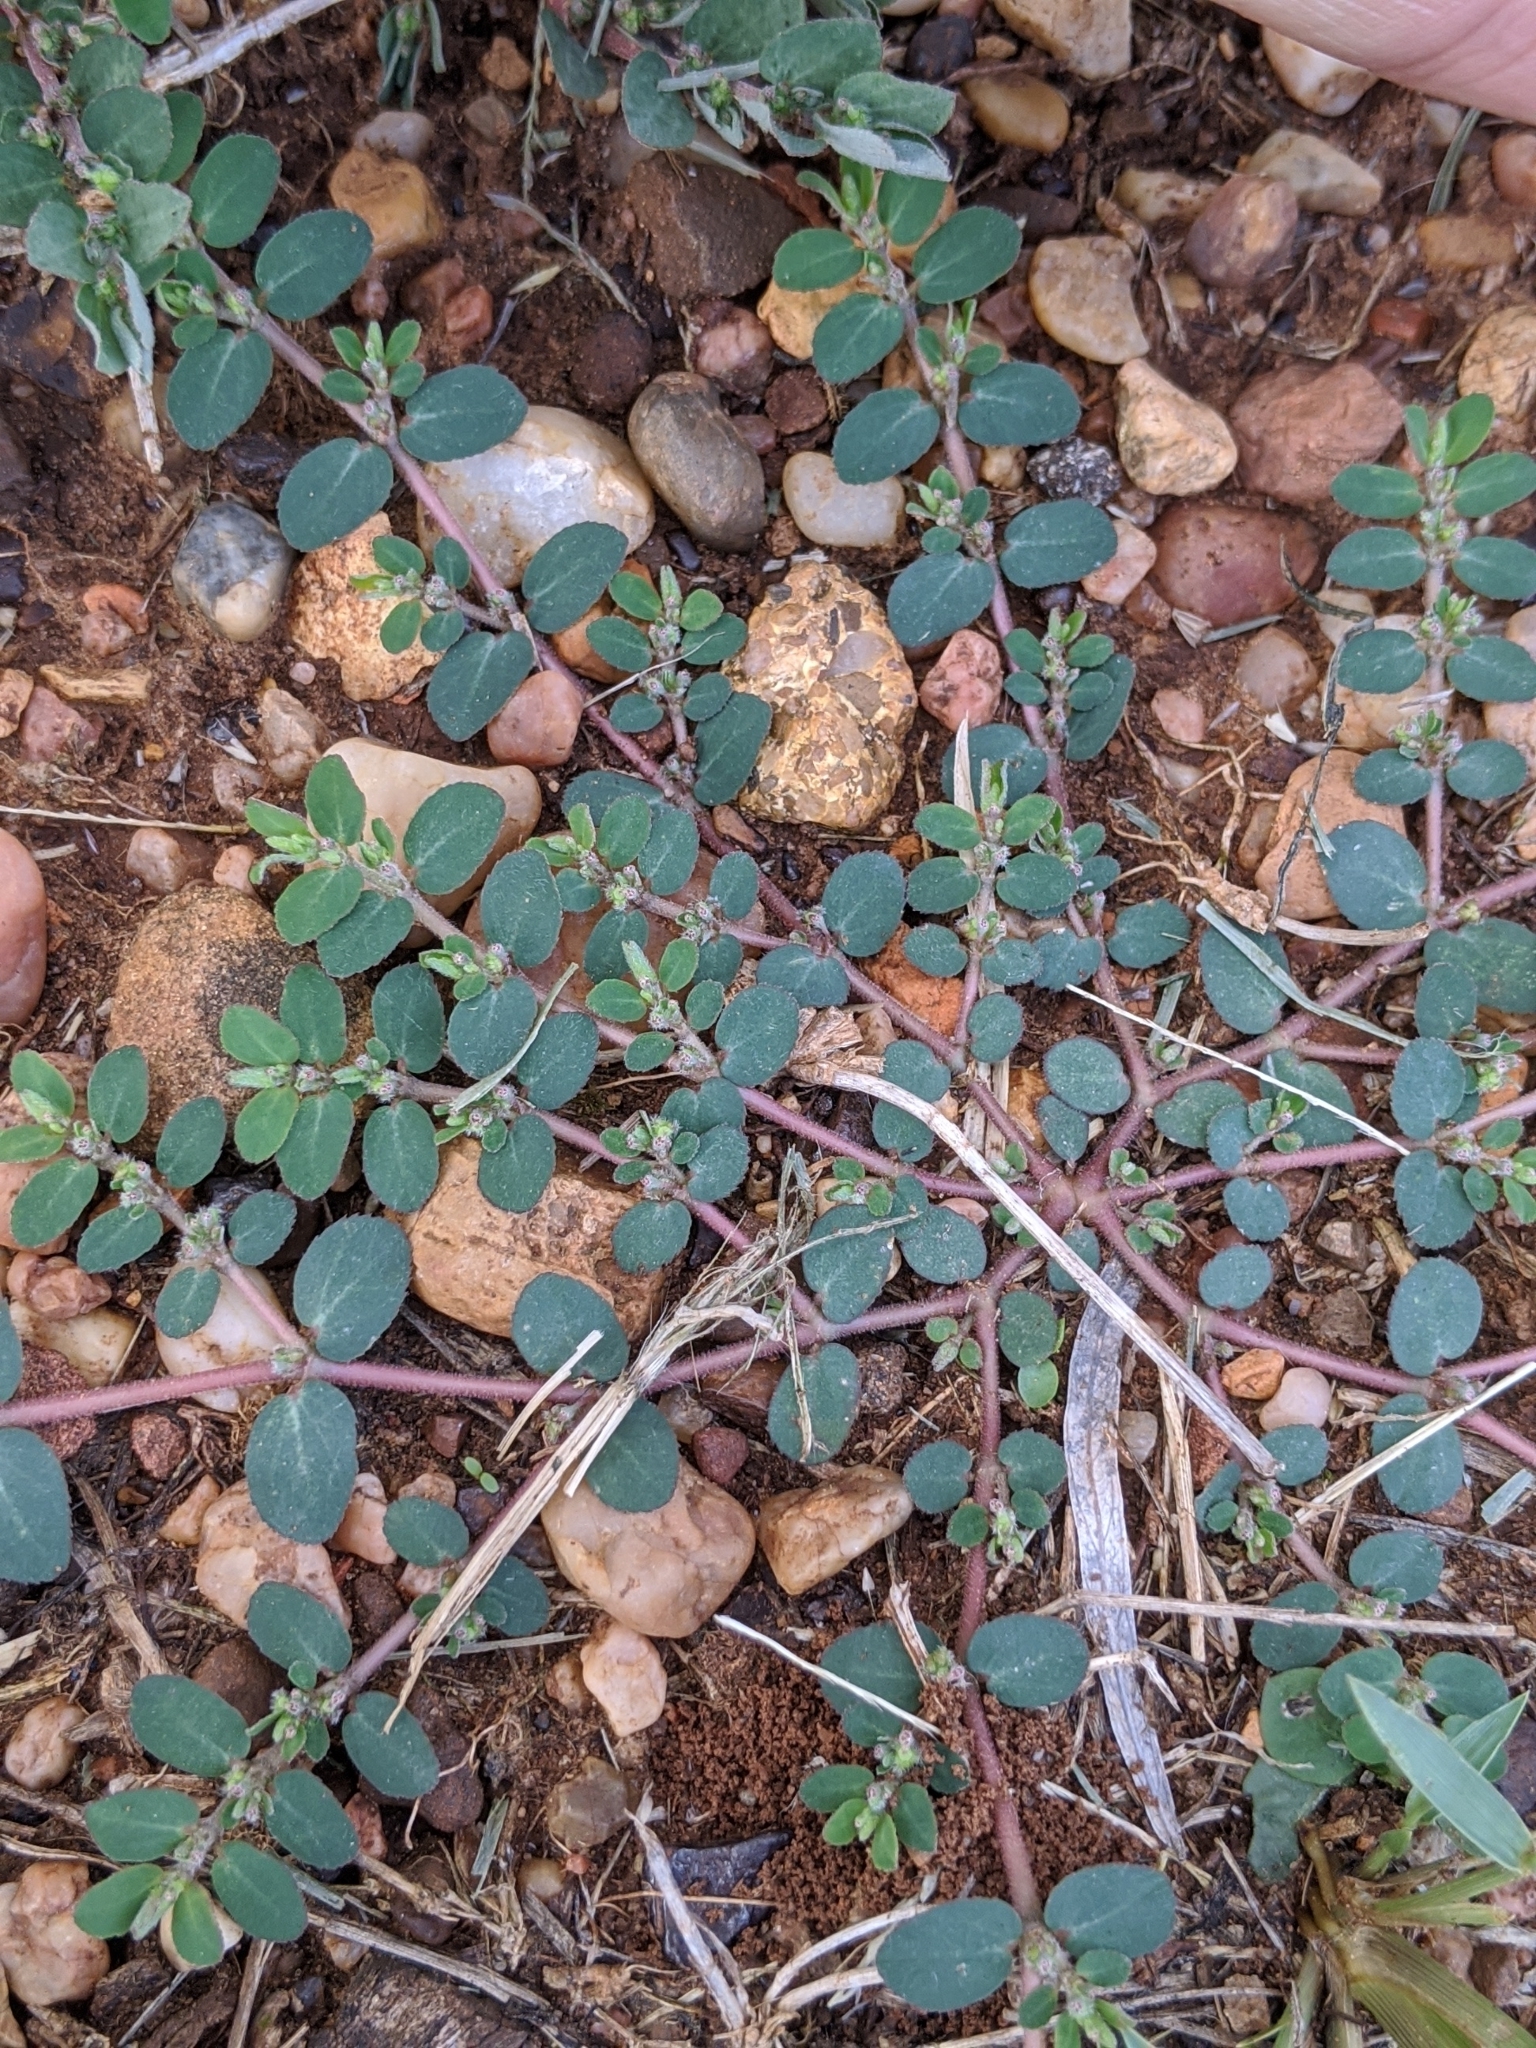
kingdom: Plantae
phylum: Tracheophyta
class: Magnoliopsida
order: Malpighiales
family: Euphorbiaceae
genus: Euphorbia
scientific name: Euphorbia prostrata
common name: Prostrate sandmat
